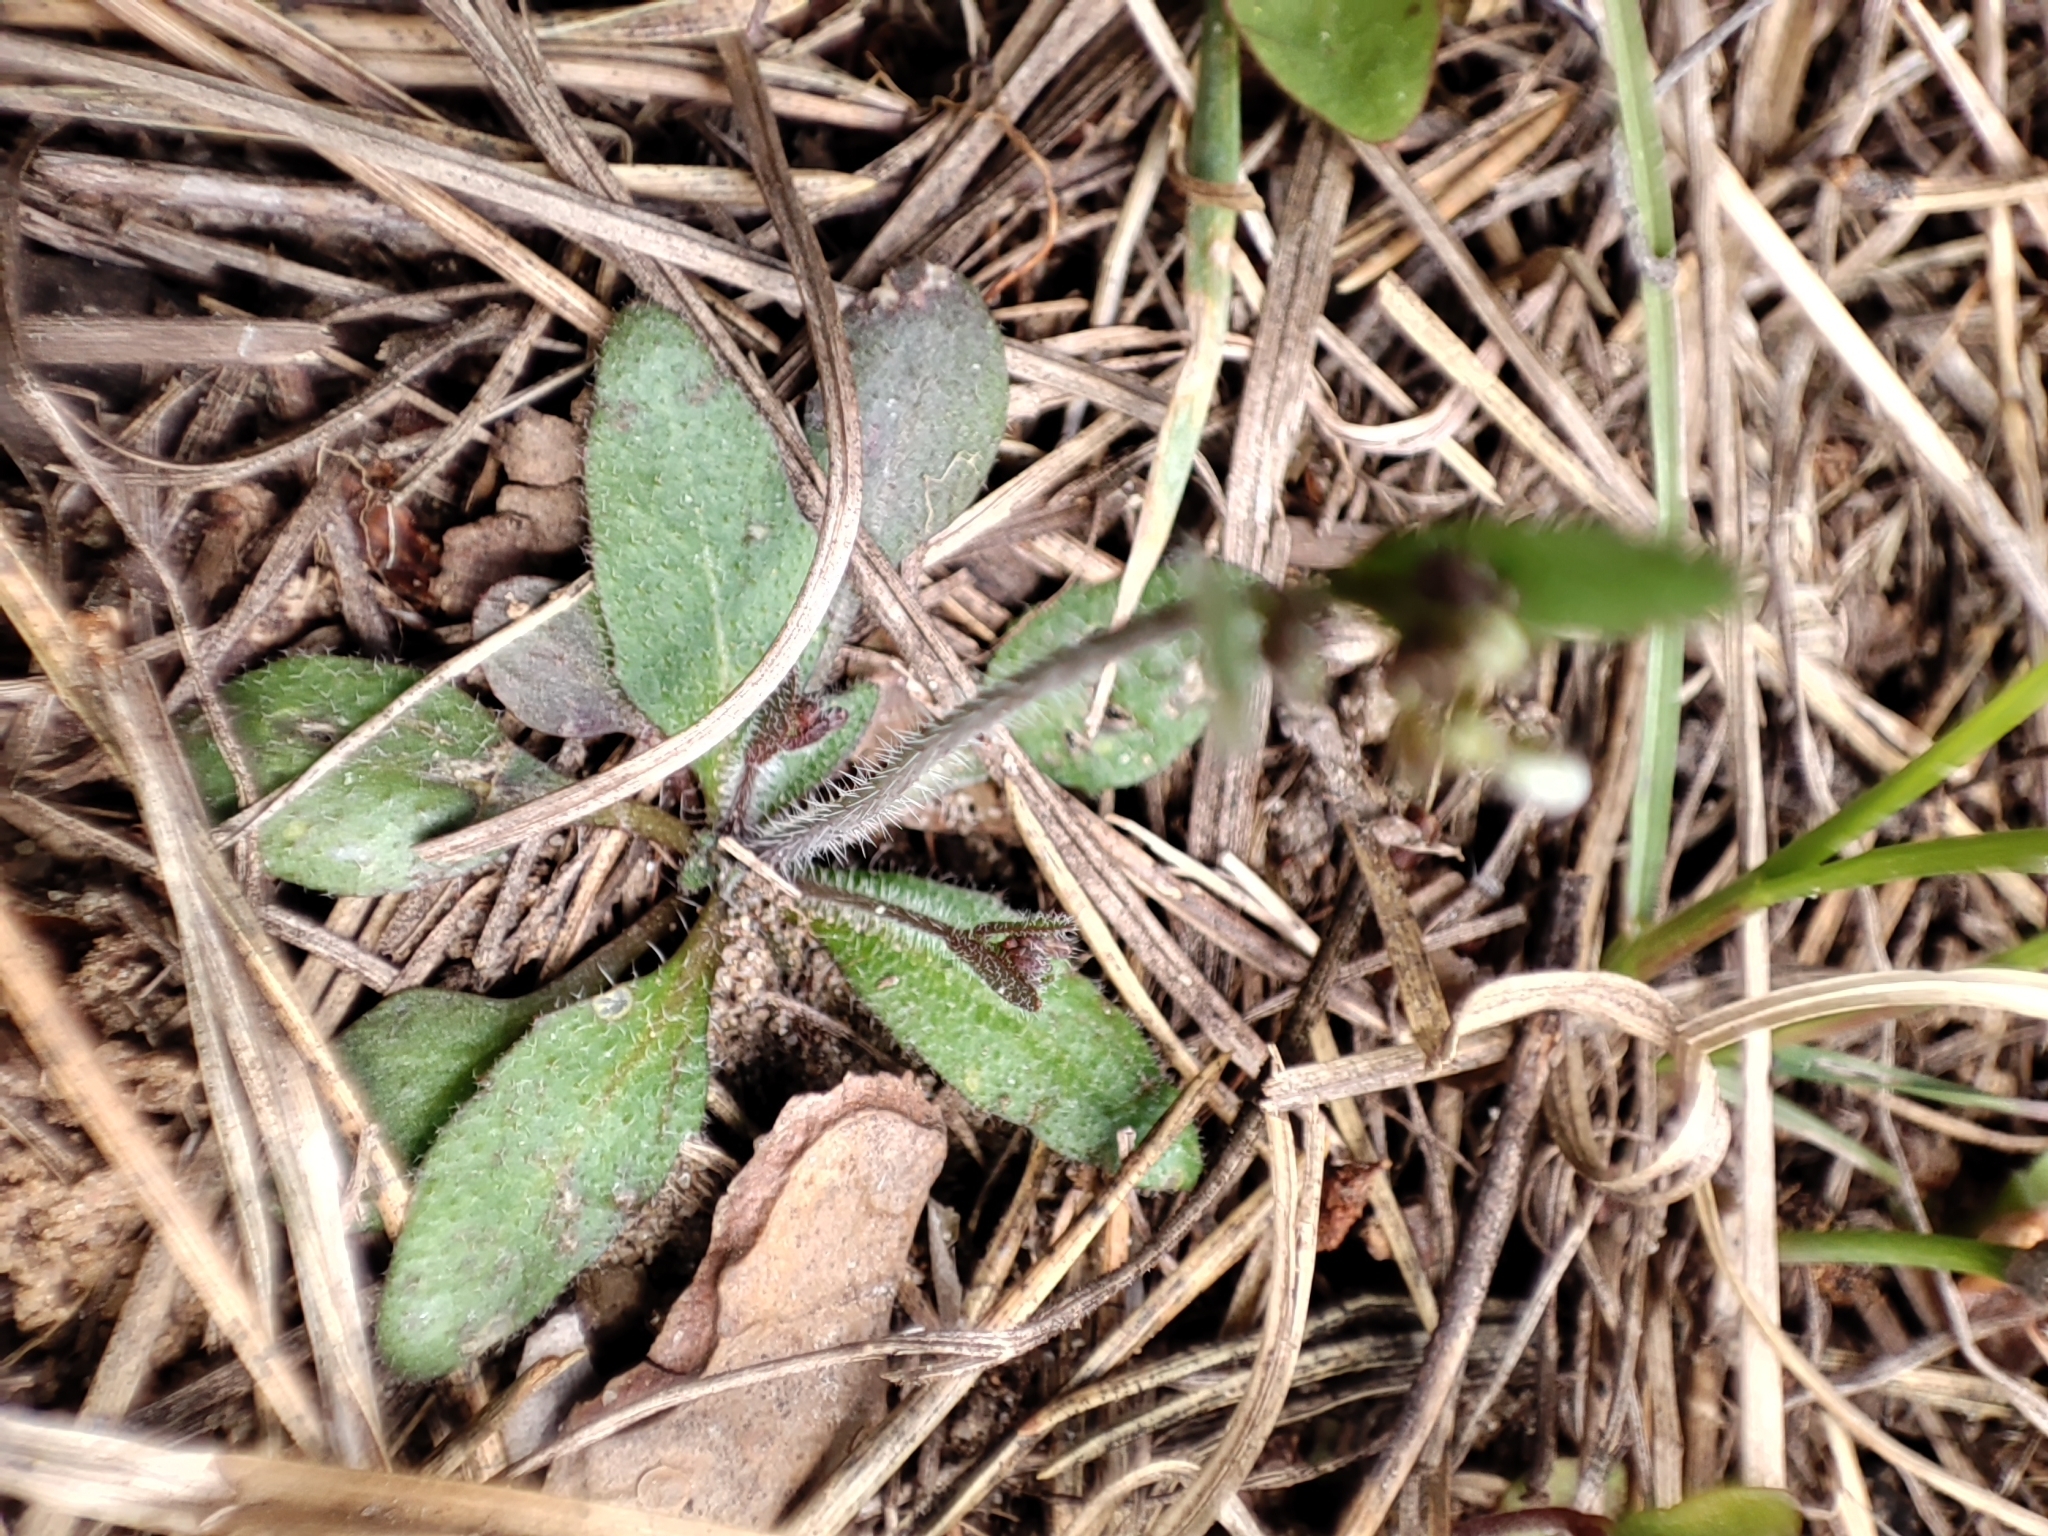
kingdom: Plantae
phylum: Tracheophyta
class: Magnoliopsida
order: Brassicales
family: Brassicaceae
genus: Arabidopsis
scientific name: Arabidopsis thaliana
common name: Thale cress
